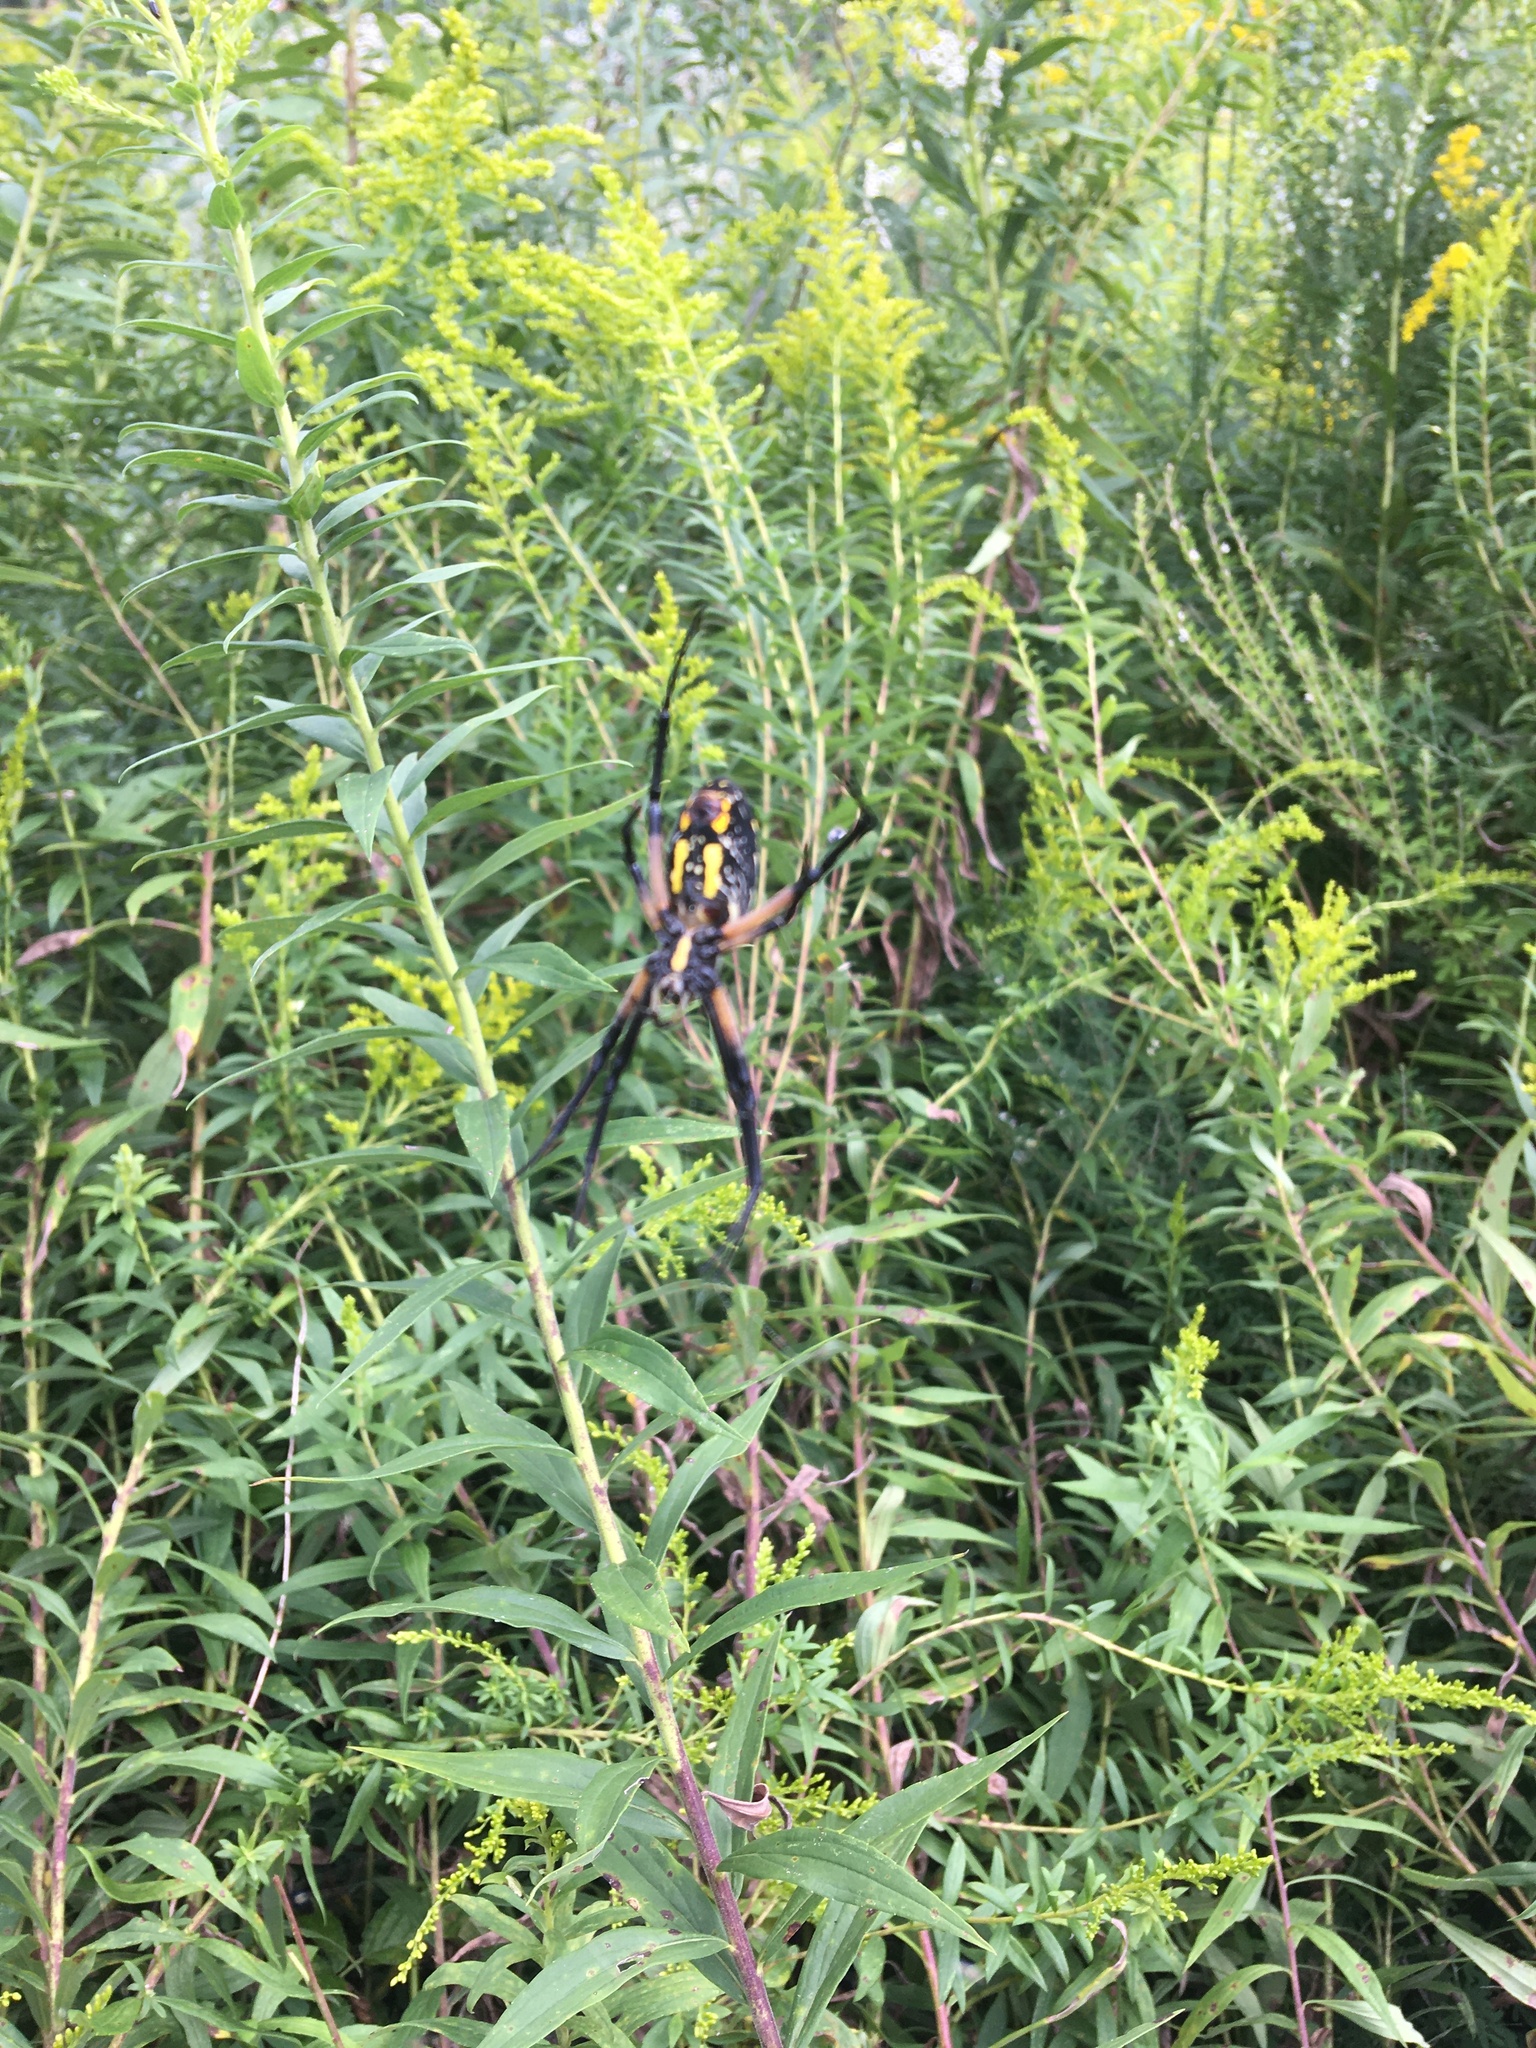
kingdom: Animalia
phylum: Arthropoda
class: Arachnida
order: Araneae
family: Araneidae
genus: Argiope
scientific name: Argiope aurantia
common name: Orb weavers
